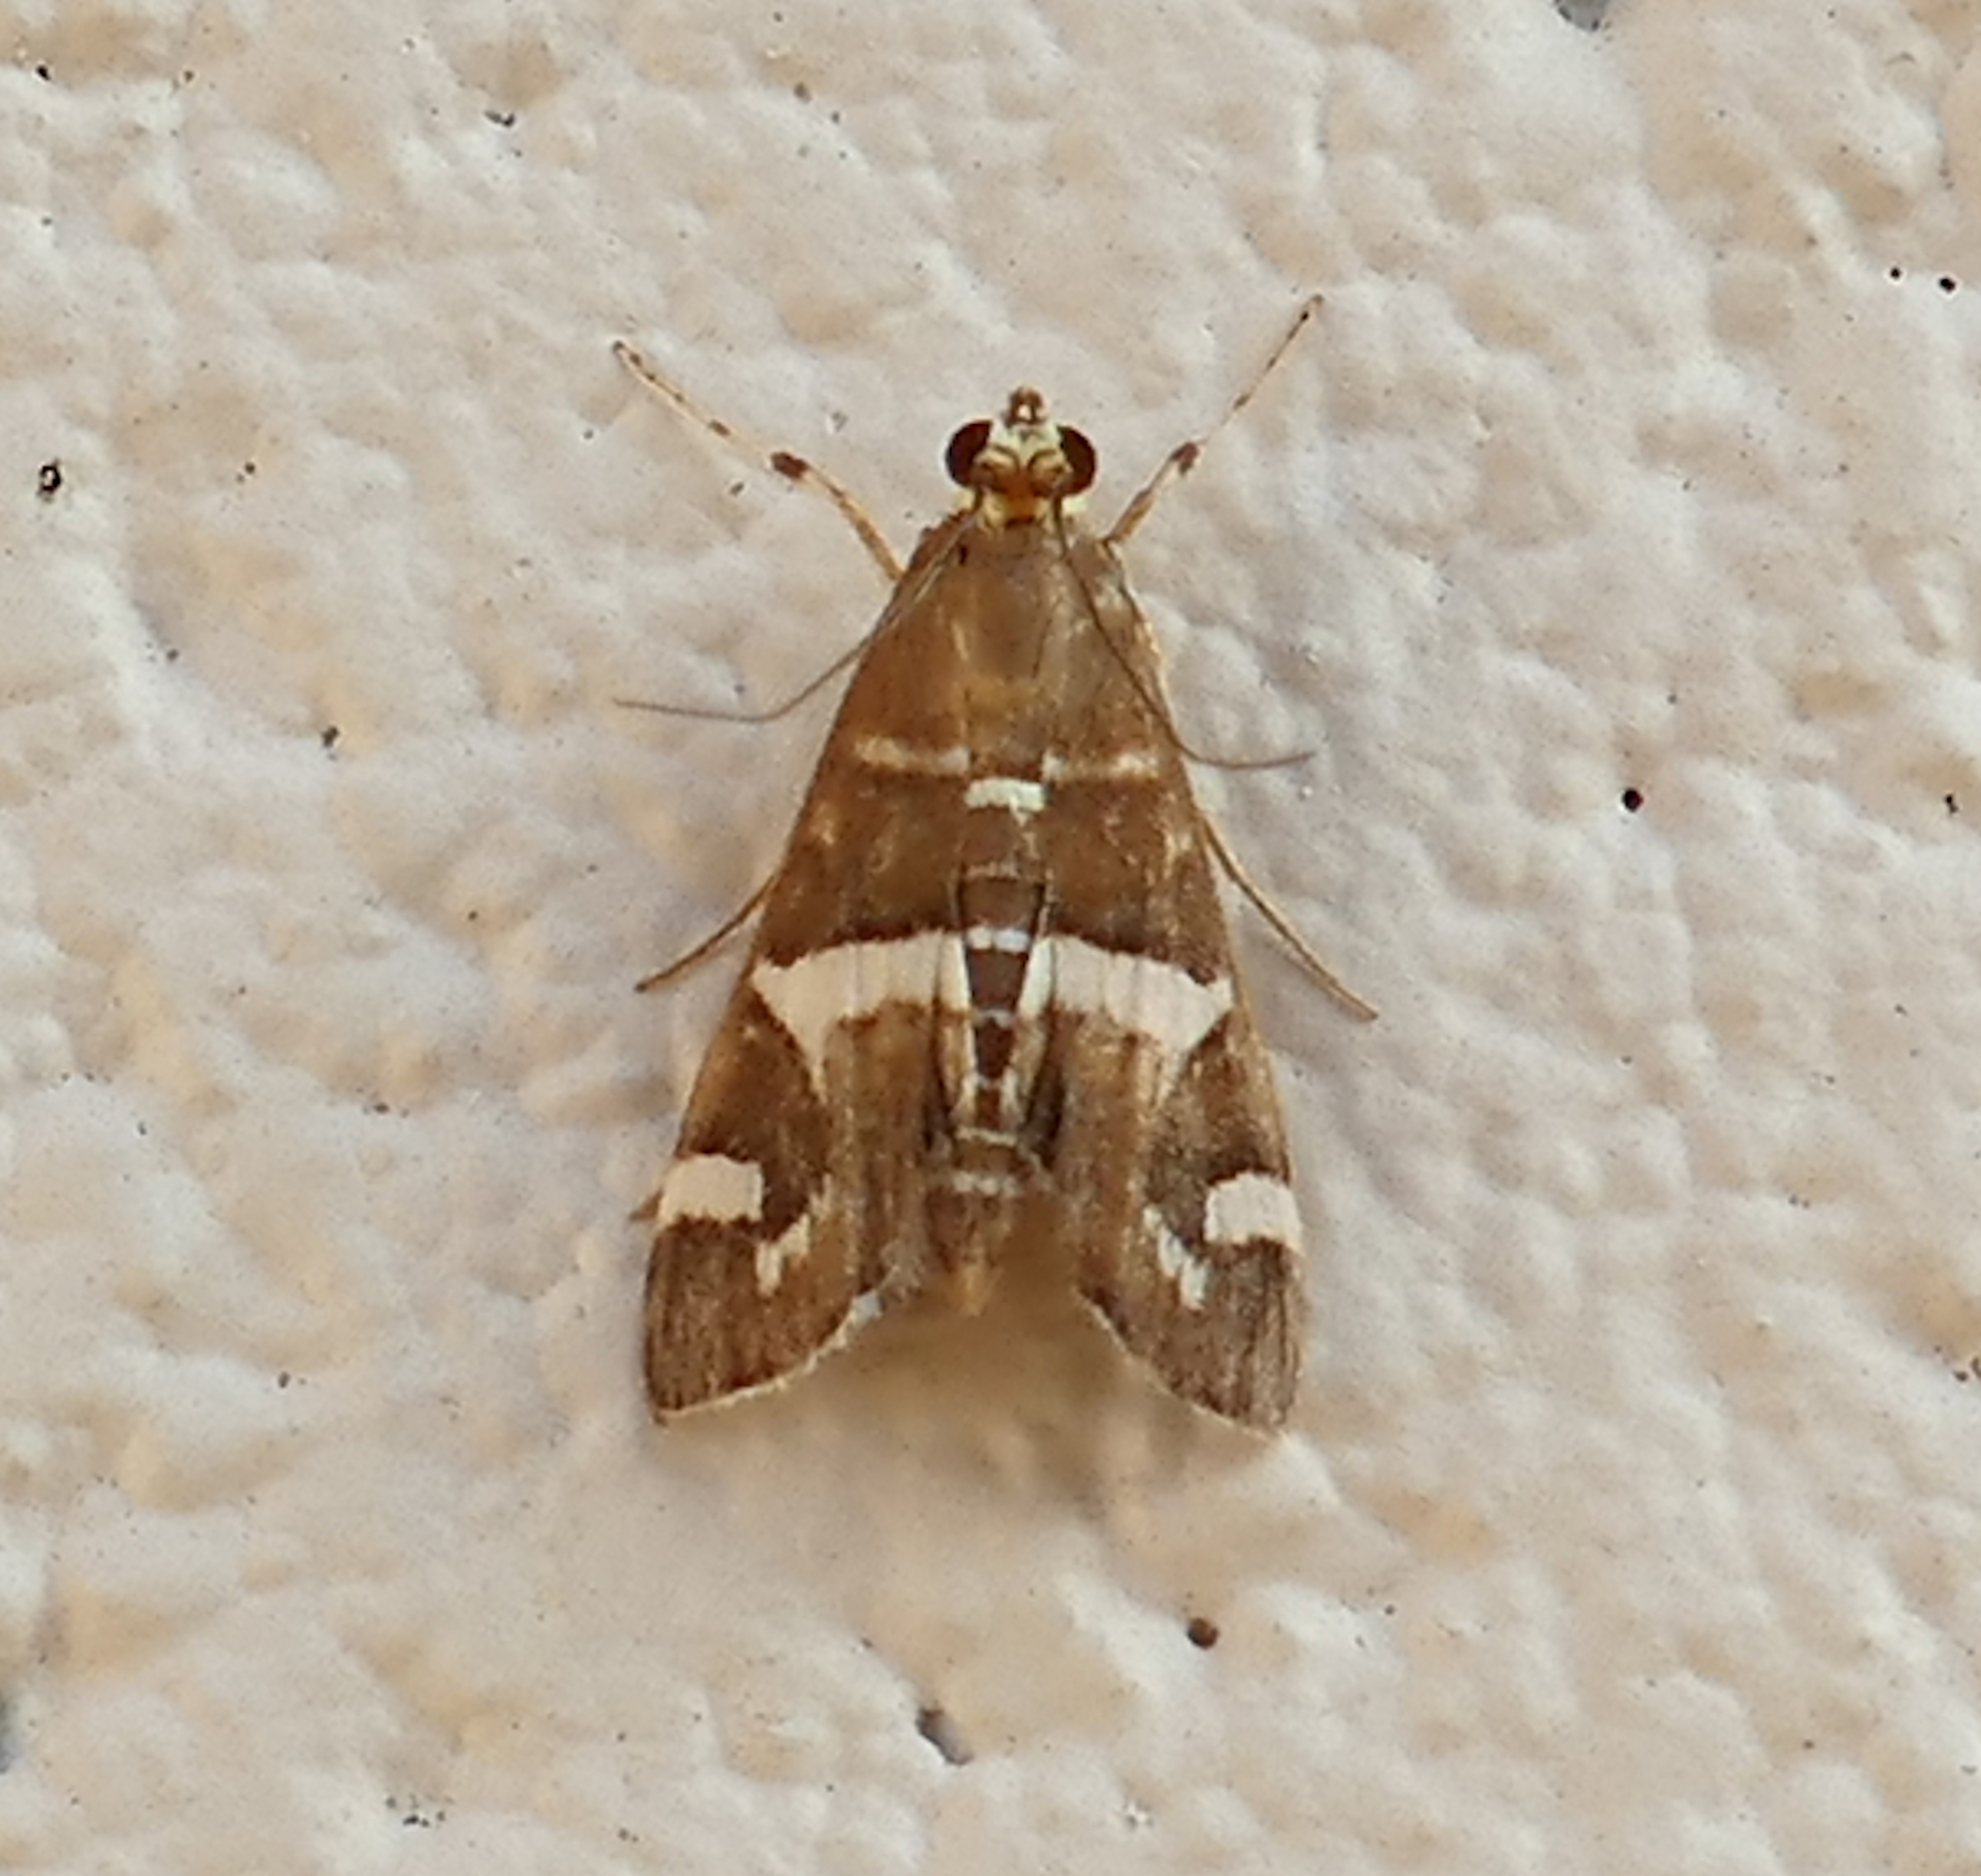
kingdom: Animalia
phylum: Arthropoda
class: Insecta
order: Lepidoptera
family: Crambidae
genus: Spoladea
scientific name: Spoladea recurvalis
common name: Beet webworm moth
